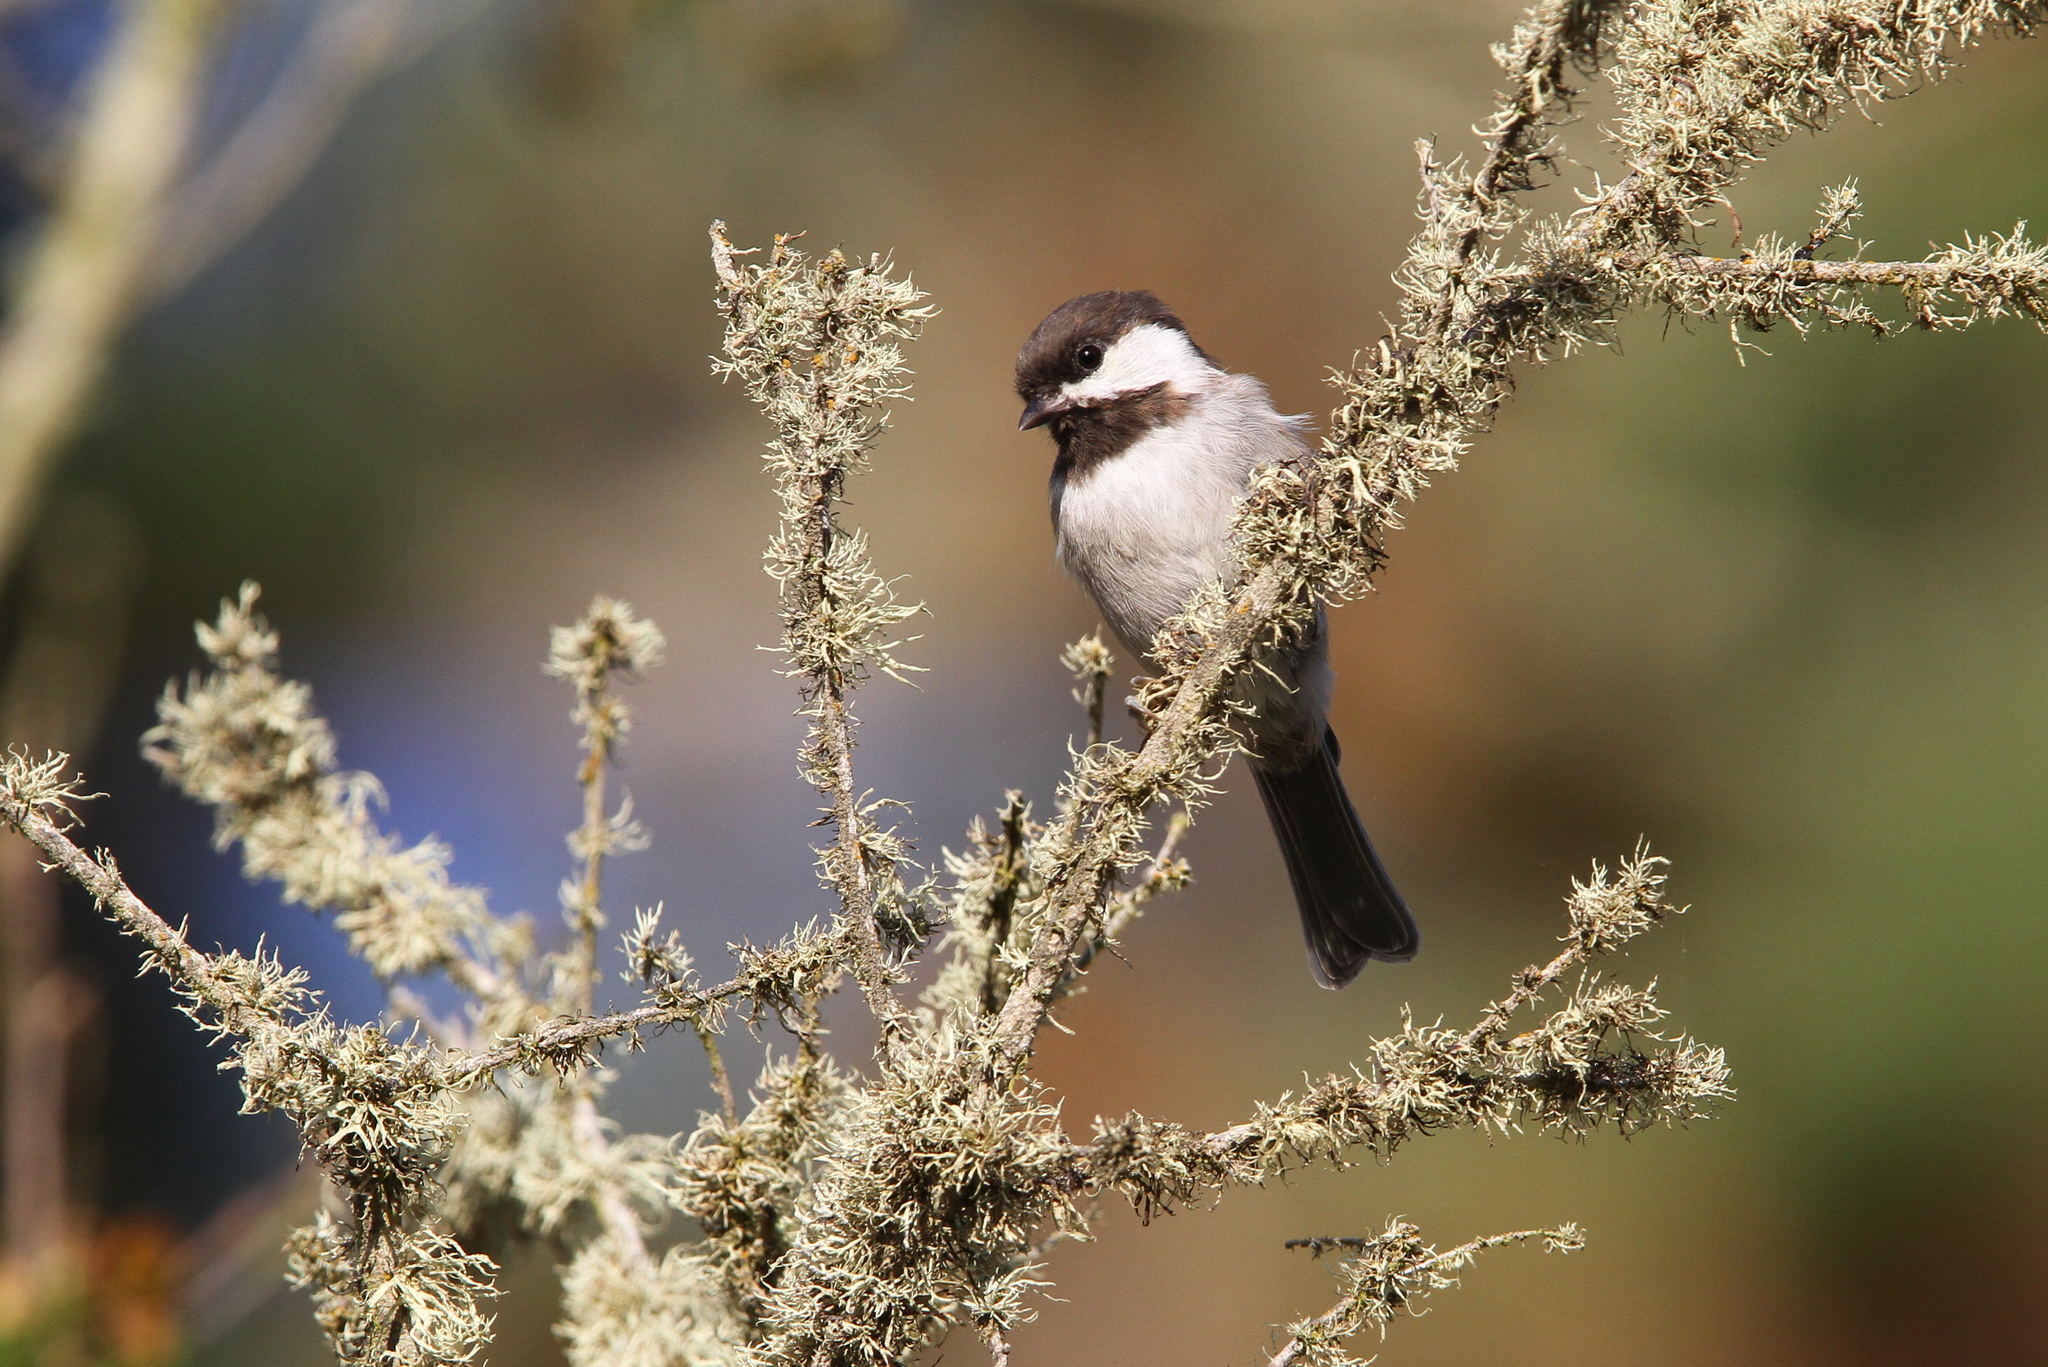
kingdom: Animalia
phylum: Chordata
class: Aves
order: Passeriformes
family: Paridae
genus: Poecile
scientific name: Poecile rufescens
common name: Chestnut-backed chickadee
